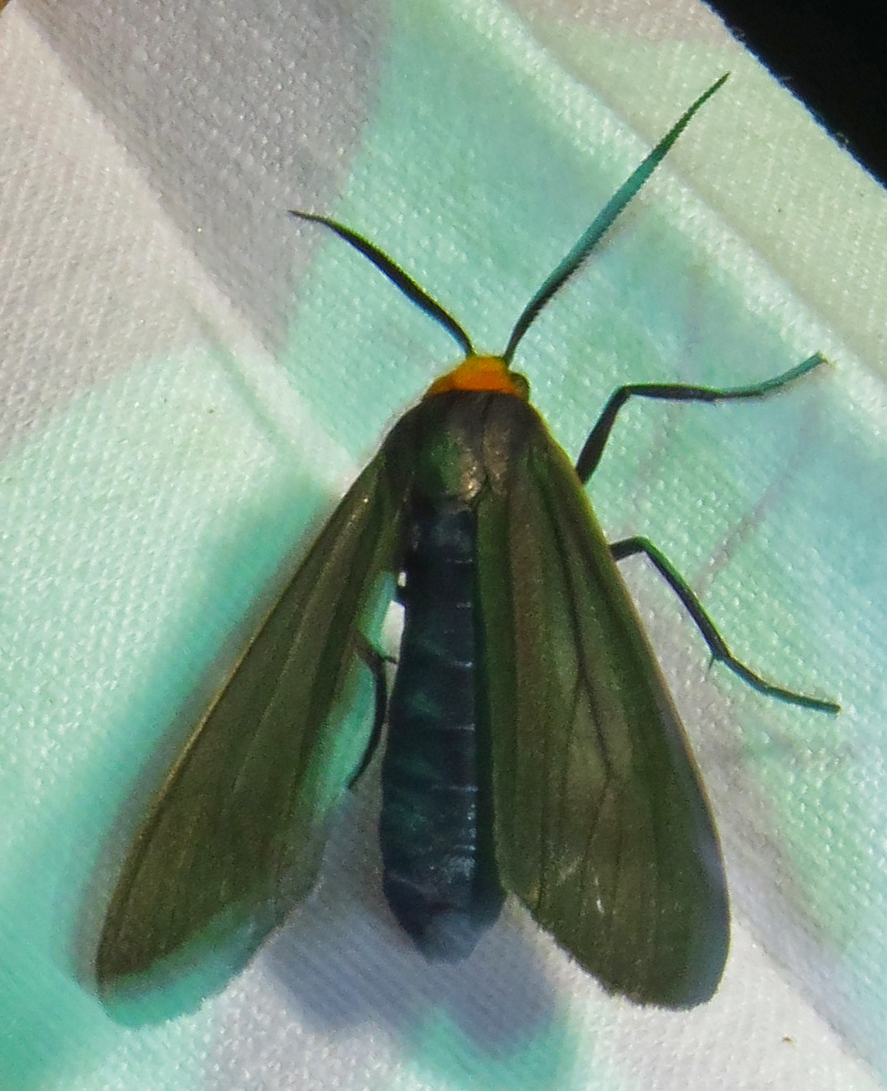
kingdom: Animalia
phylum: Arthropoda
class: Insecta
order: Lepidoptera
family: Erebidae
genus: Cisseps
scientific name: Cisseps fulvicollis
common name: Yellow-collared scape moth
